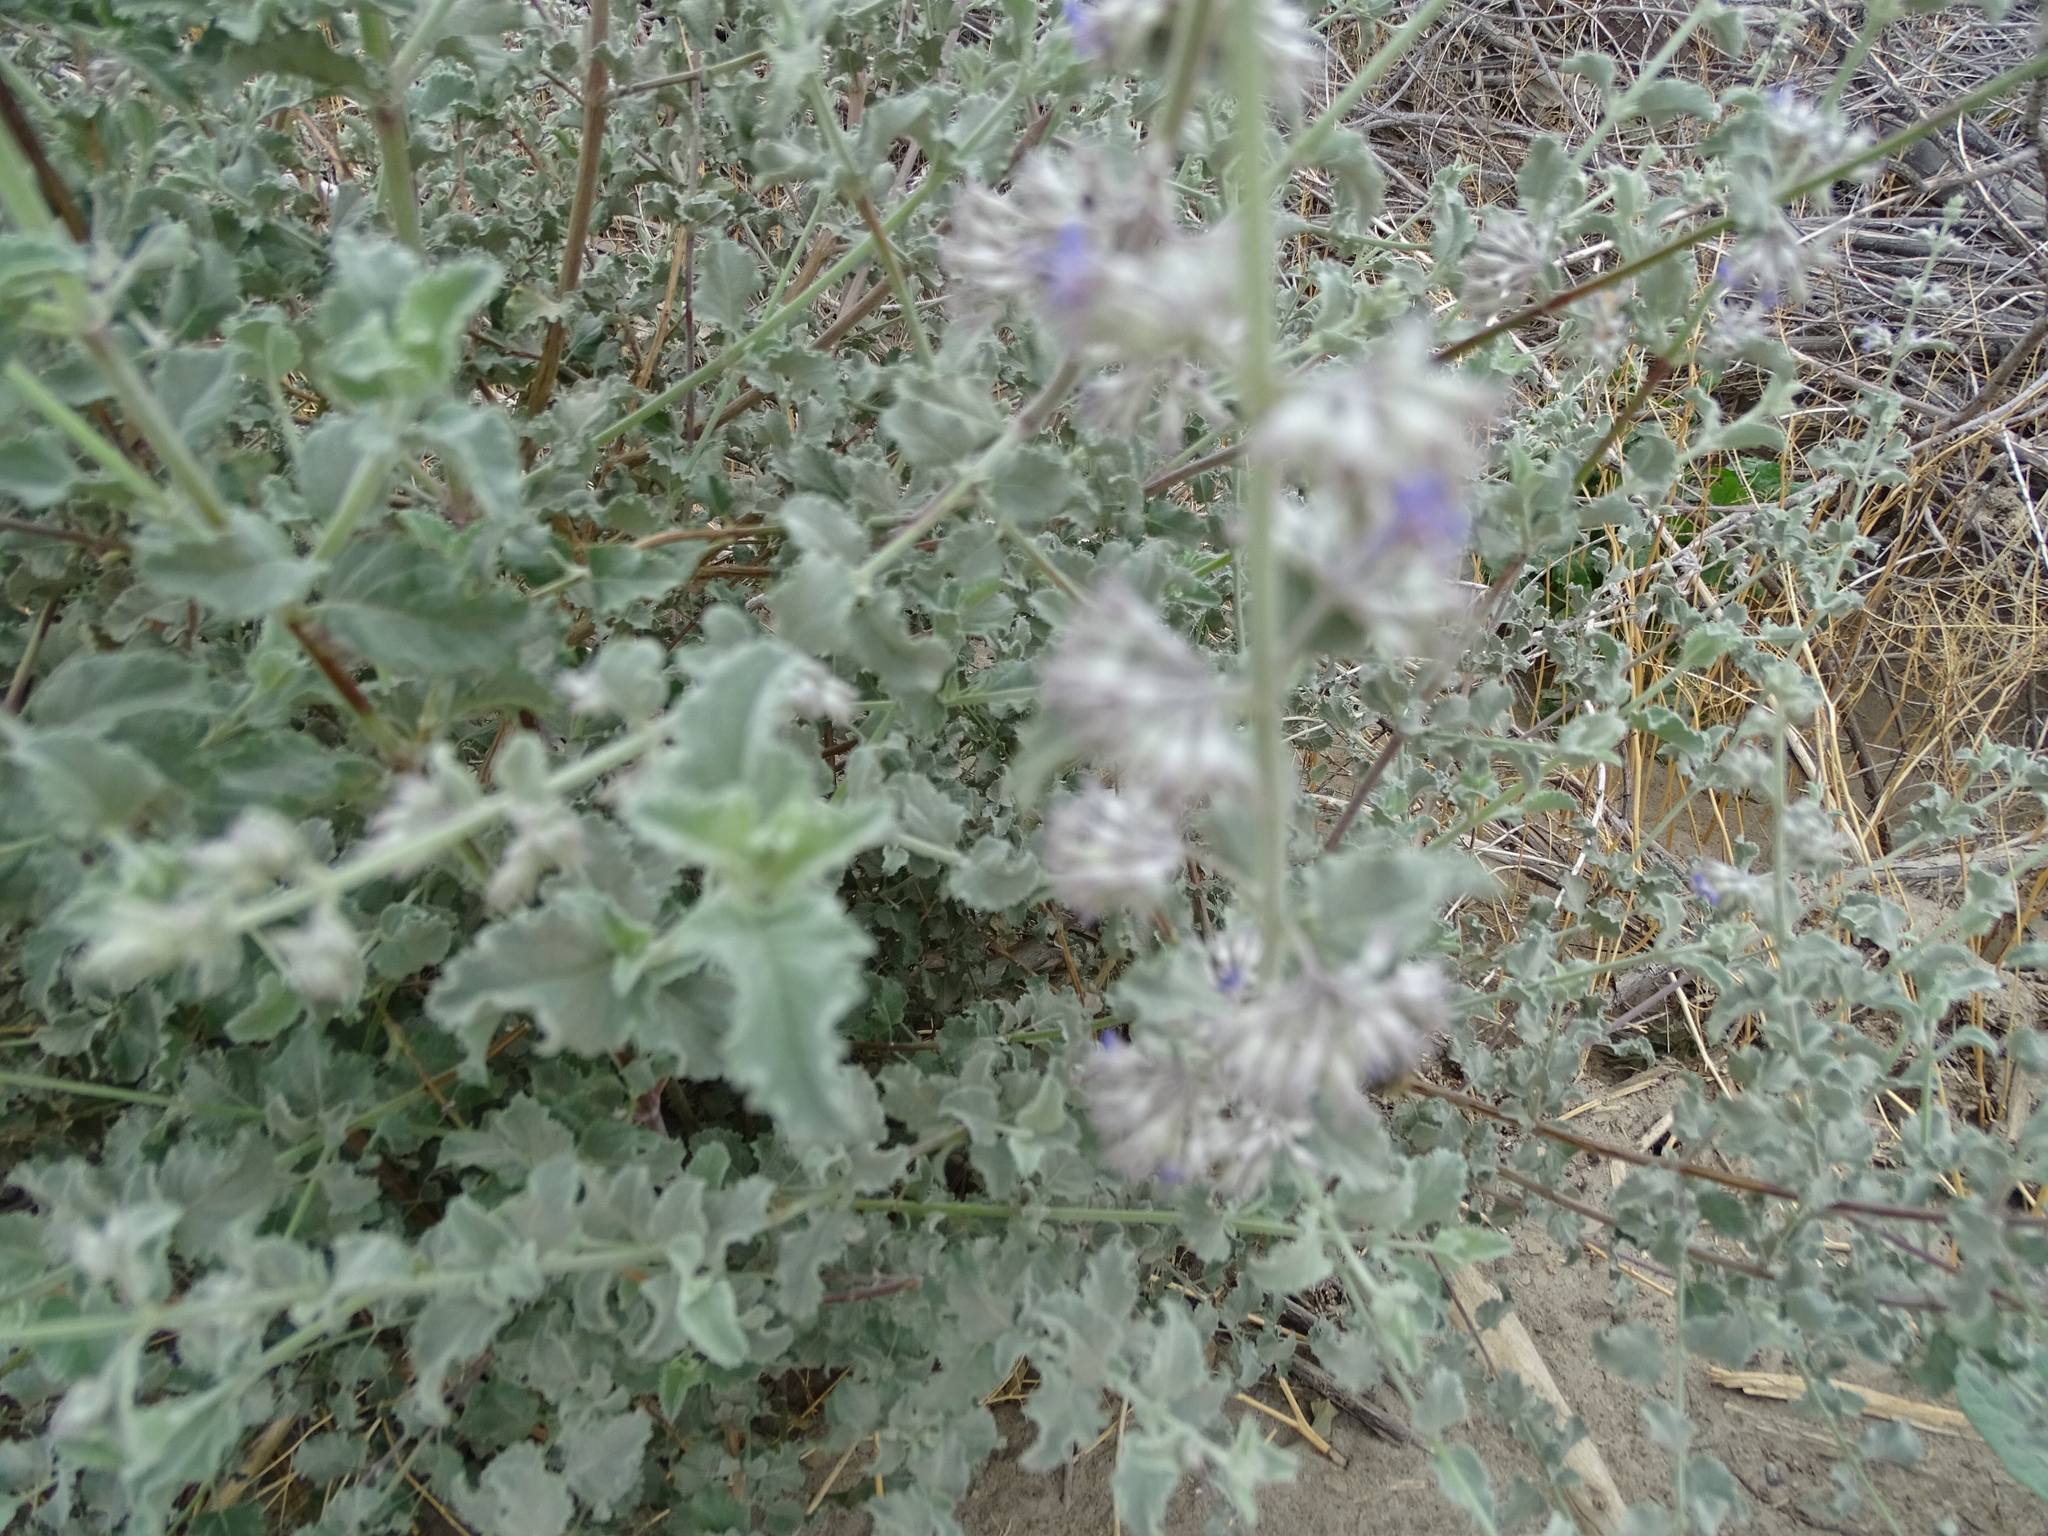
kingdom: Plantae
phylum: Tracheophyta
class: Magnoliopsida
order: Lamiales
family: Lamiaceae
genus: Condea
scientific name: Condea emoryi
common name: Chia
